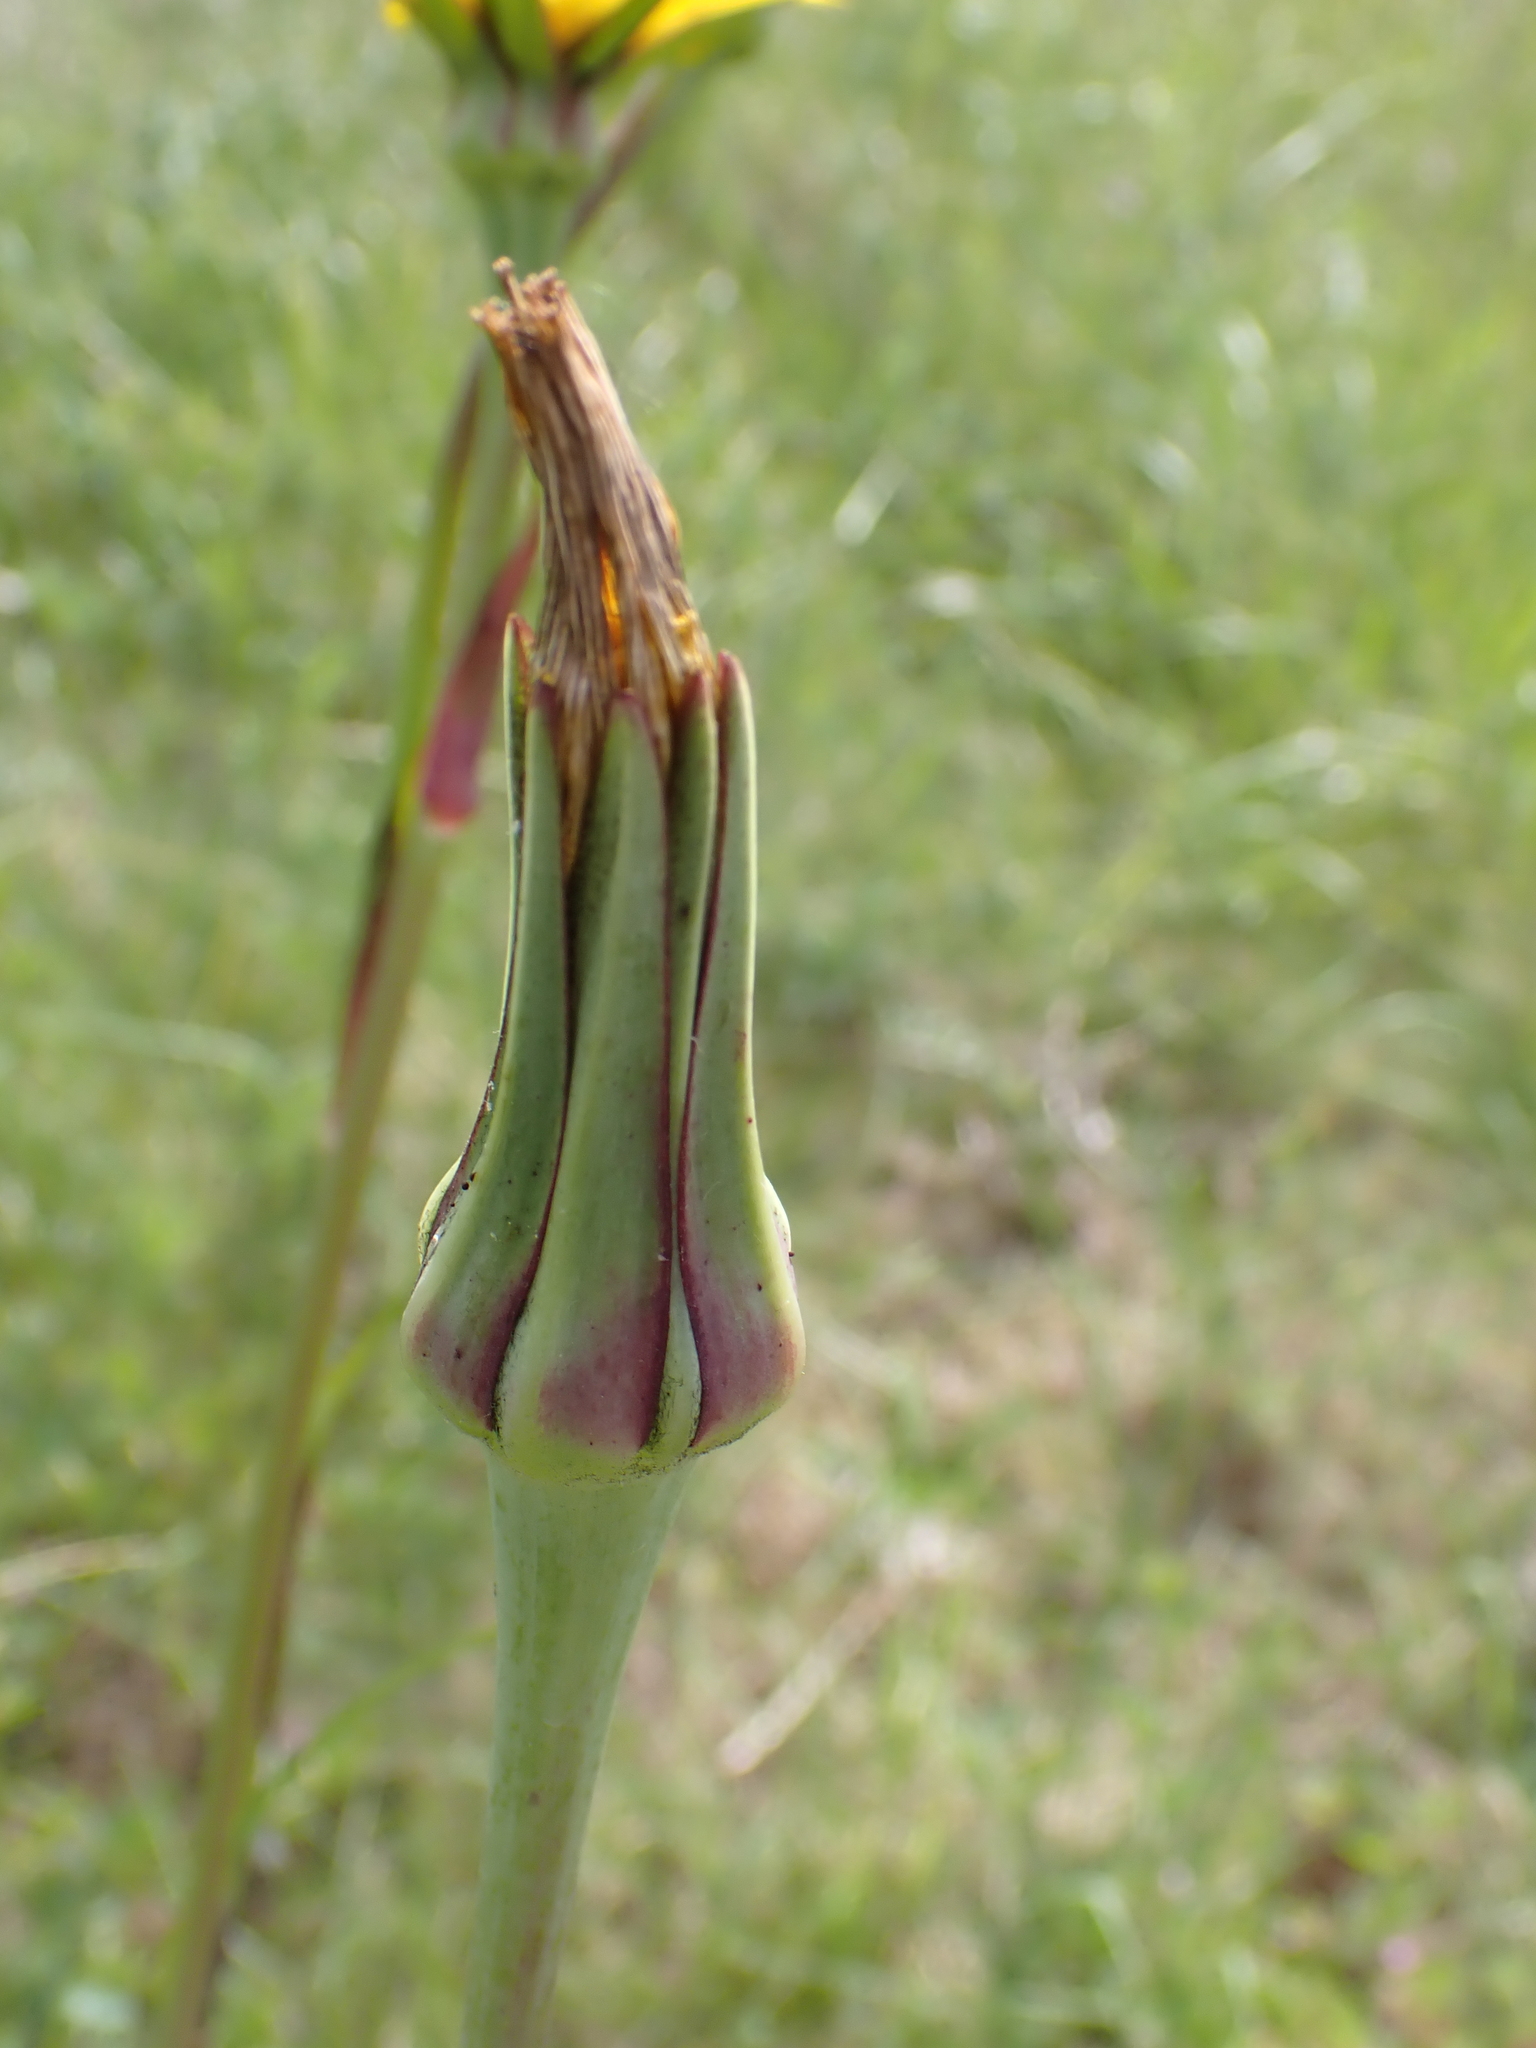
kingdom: Plantae
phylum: Tracheophyta
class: Magnoliopsida
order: Asterales
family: Asteraceae
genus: Tragopogon
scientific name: Tragopogon pratensis
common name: Goat's-beard
